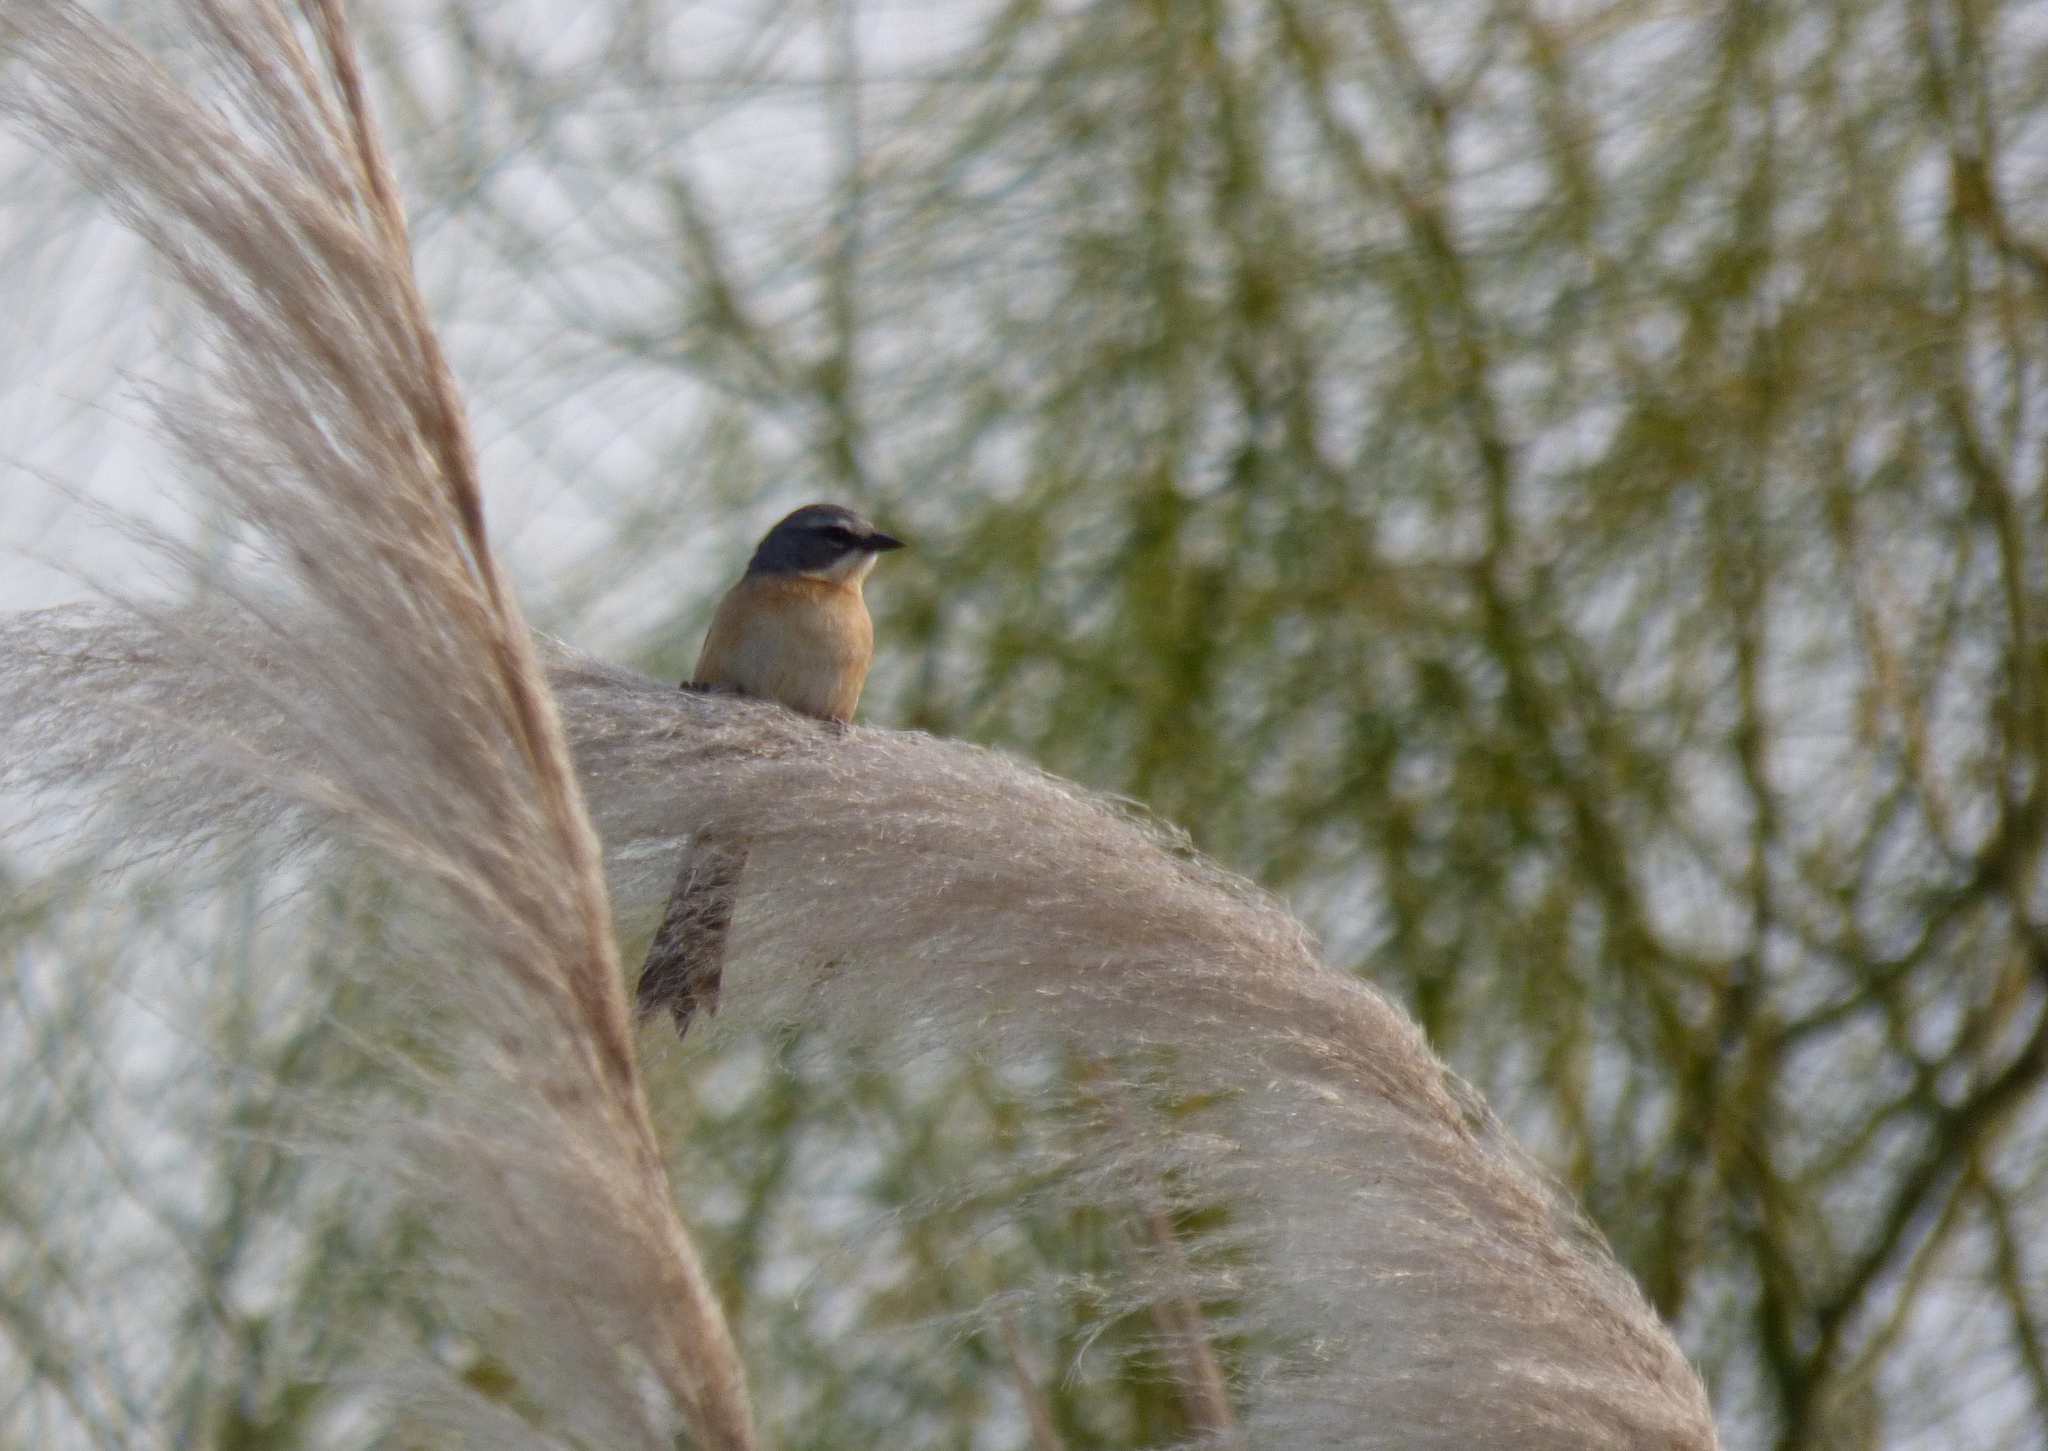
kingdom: Animalia
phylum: Chordata
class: Aves
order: Passeriformes
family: Thraupidae
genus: Donacospiza
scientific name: Donacospiza albifrons
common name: Long-tailed reed finch
